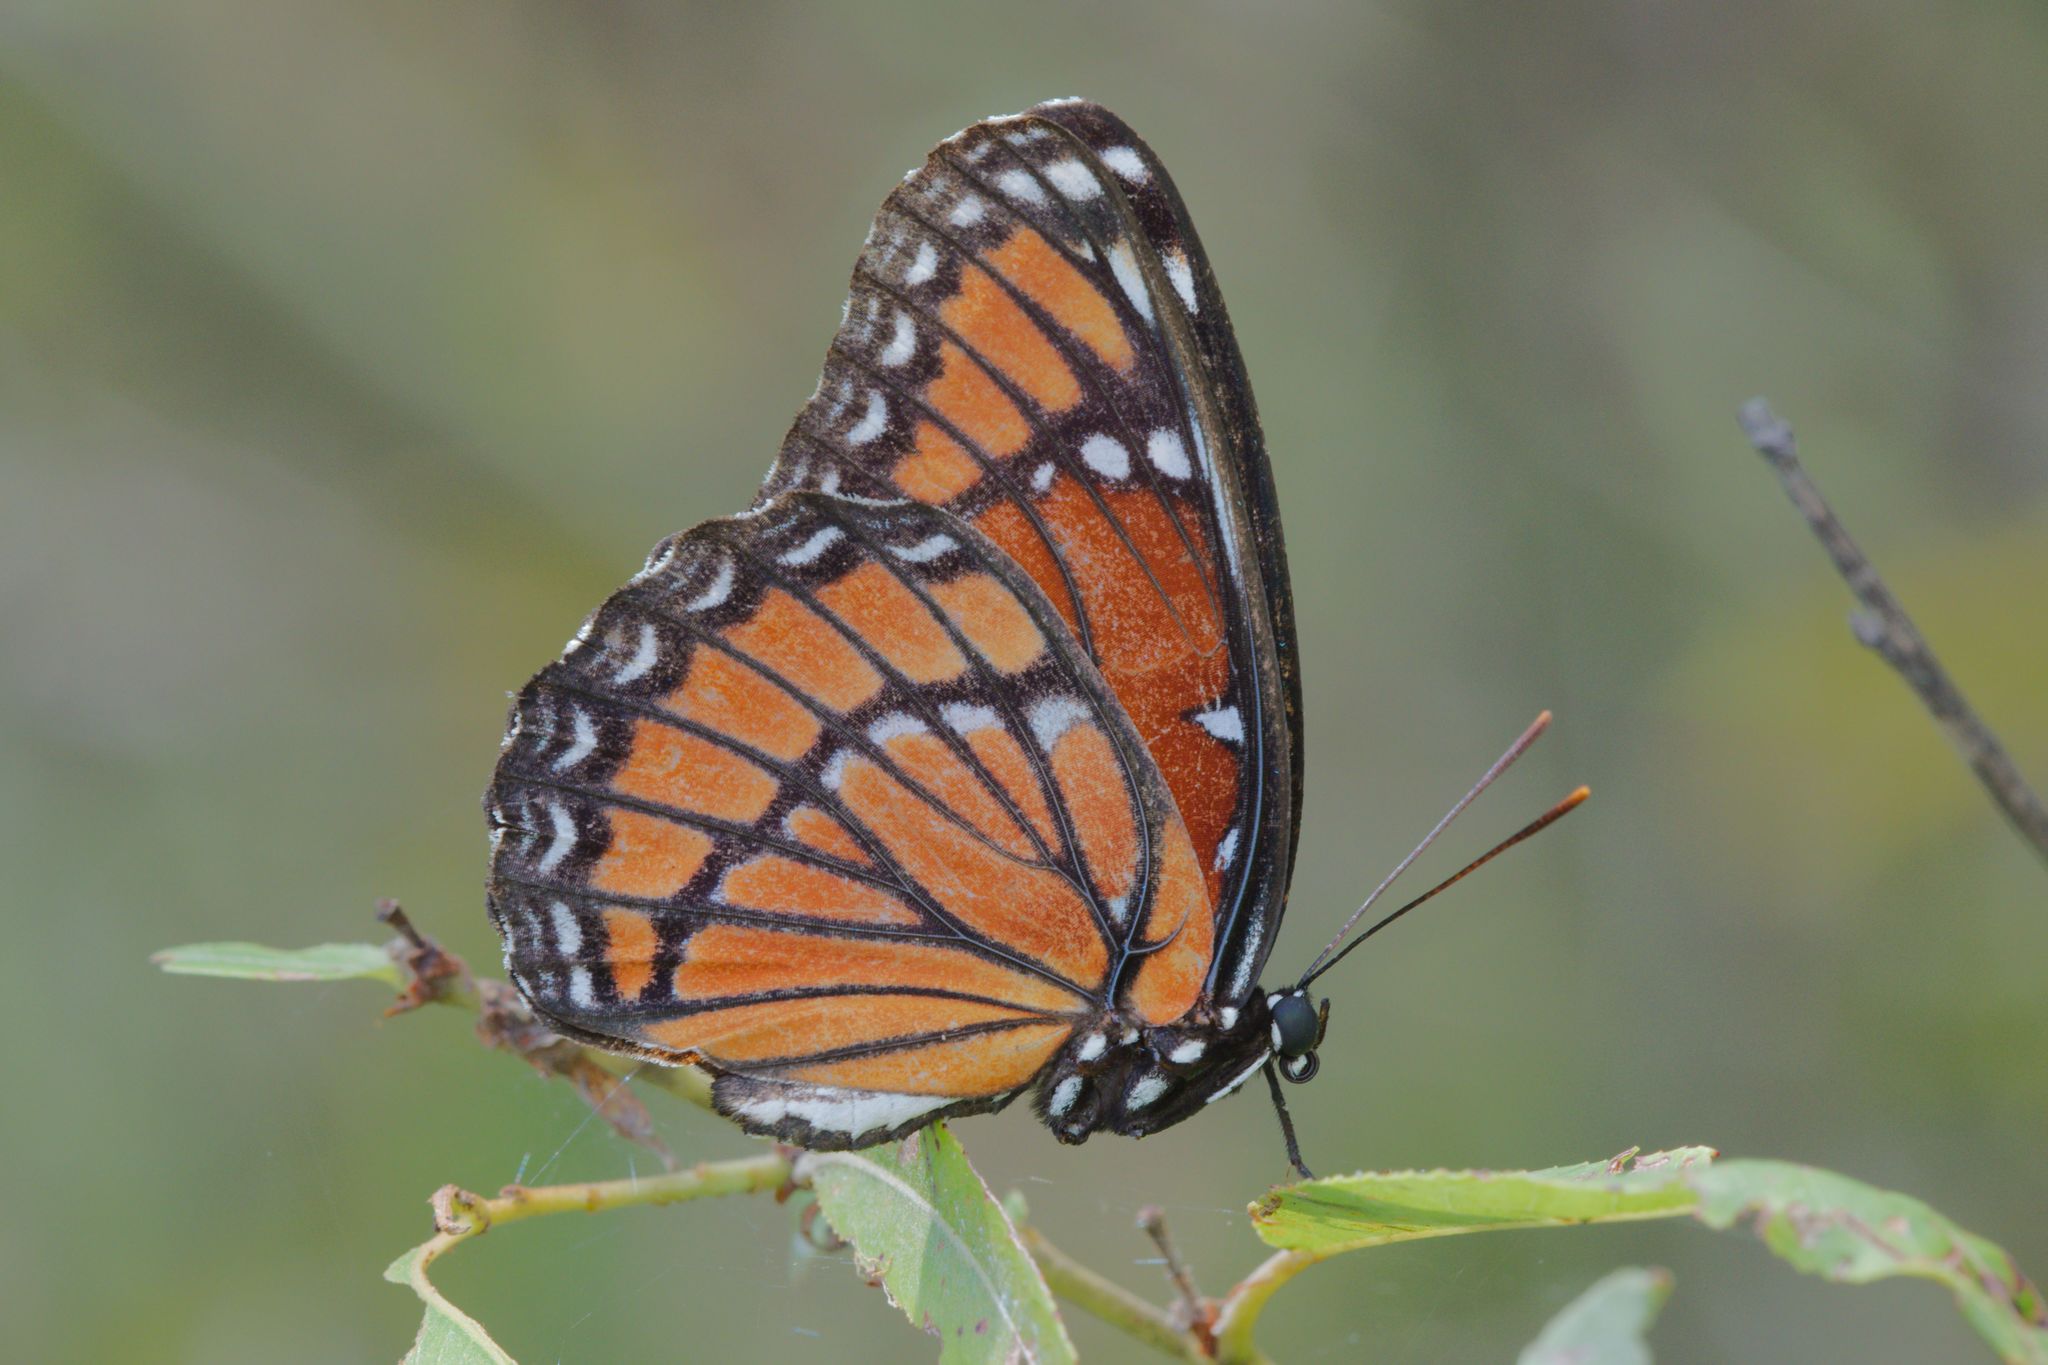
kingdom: Animalia
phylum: Arthropoda
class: Insecta
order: Lepidoptera
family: Nymphalidae
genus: Limenitis
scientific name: Limenitis archippus
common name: Viceroy
